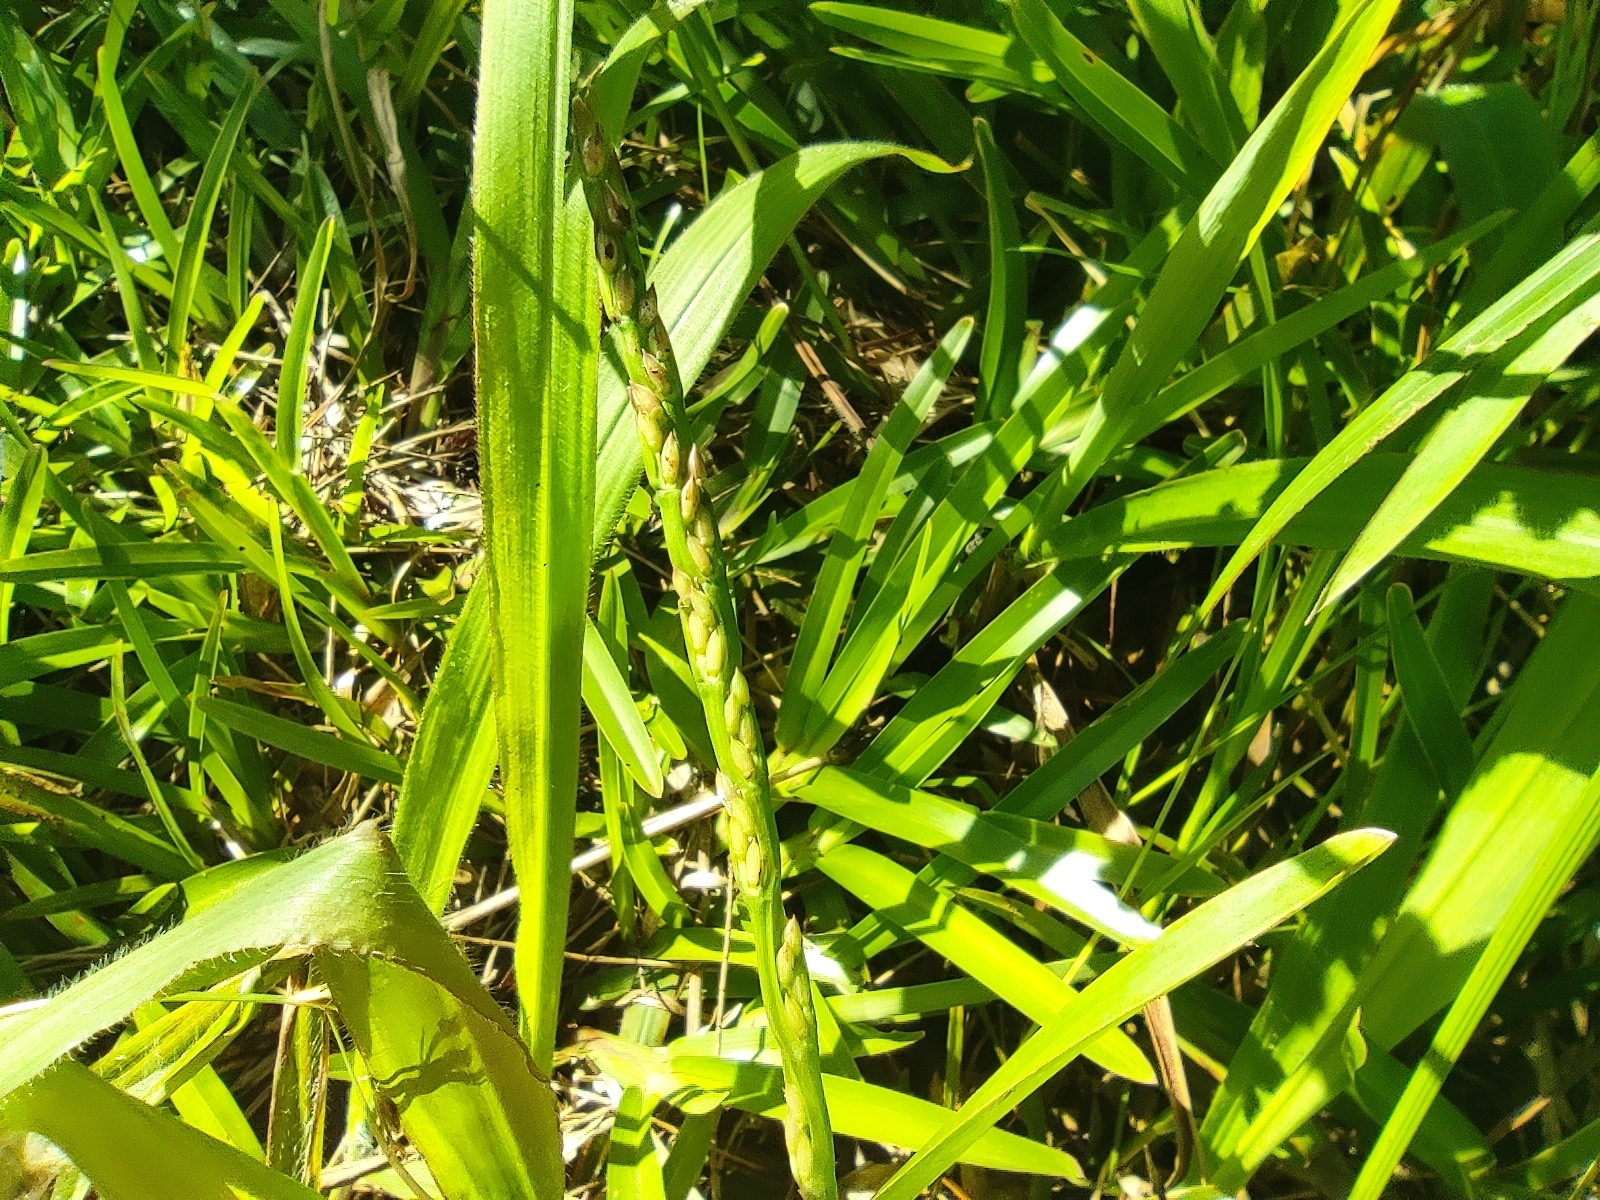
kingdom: Plantae
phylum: Tracheophyta
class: Liliopsida
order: Poales
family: Poaceae
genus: Stenotaphrum
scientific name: Stenotaphrum dimidiatum
